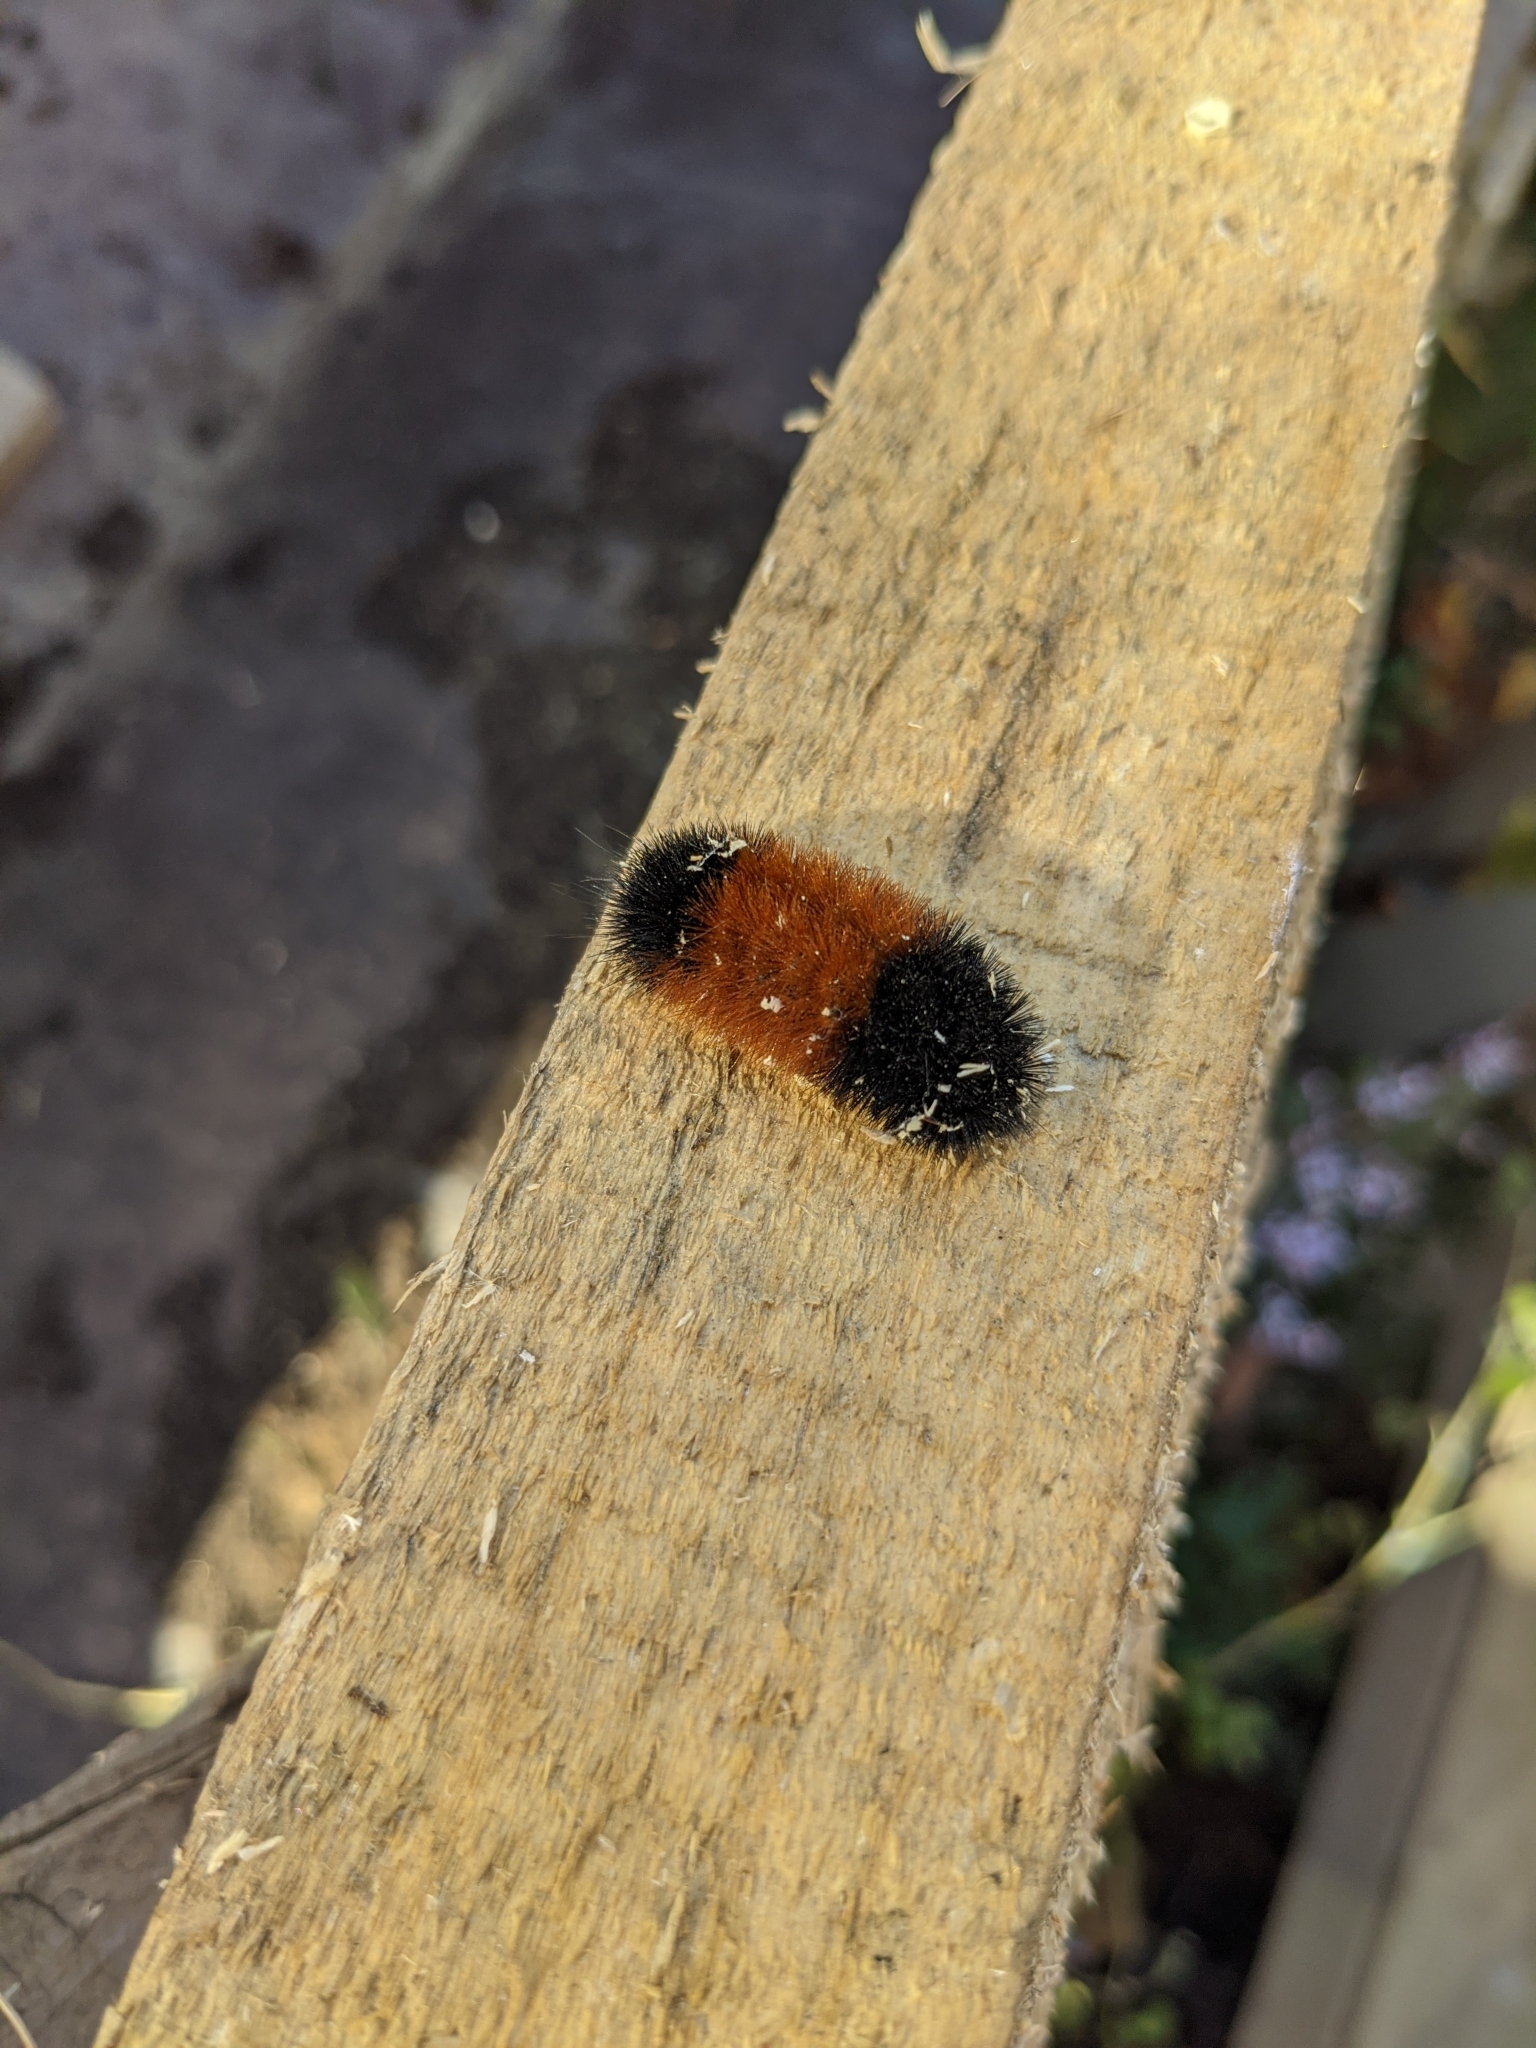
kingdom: Animalia
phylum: Arthropoda
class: Insecta
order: Lepidoptera
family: Erebidae
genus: Pyrrharctia
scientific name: Pyrrharctia isabella
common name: Isabella tiger moth
